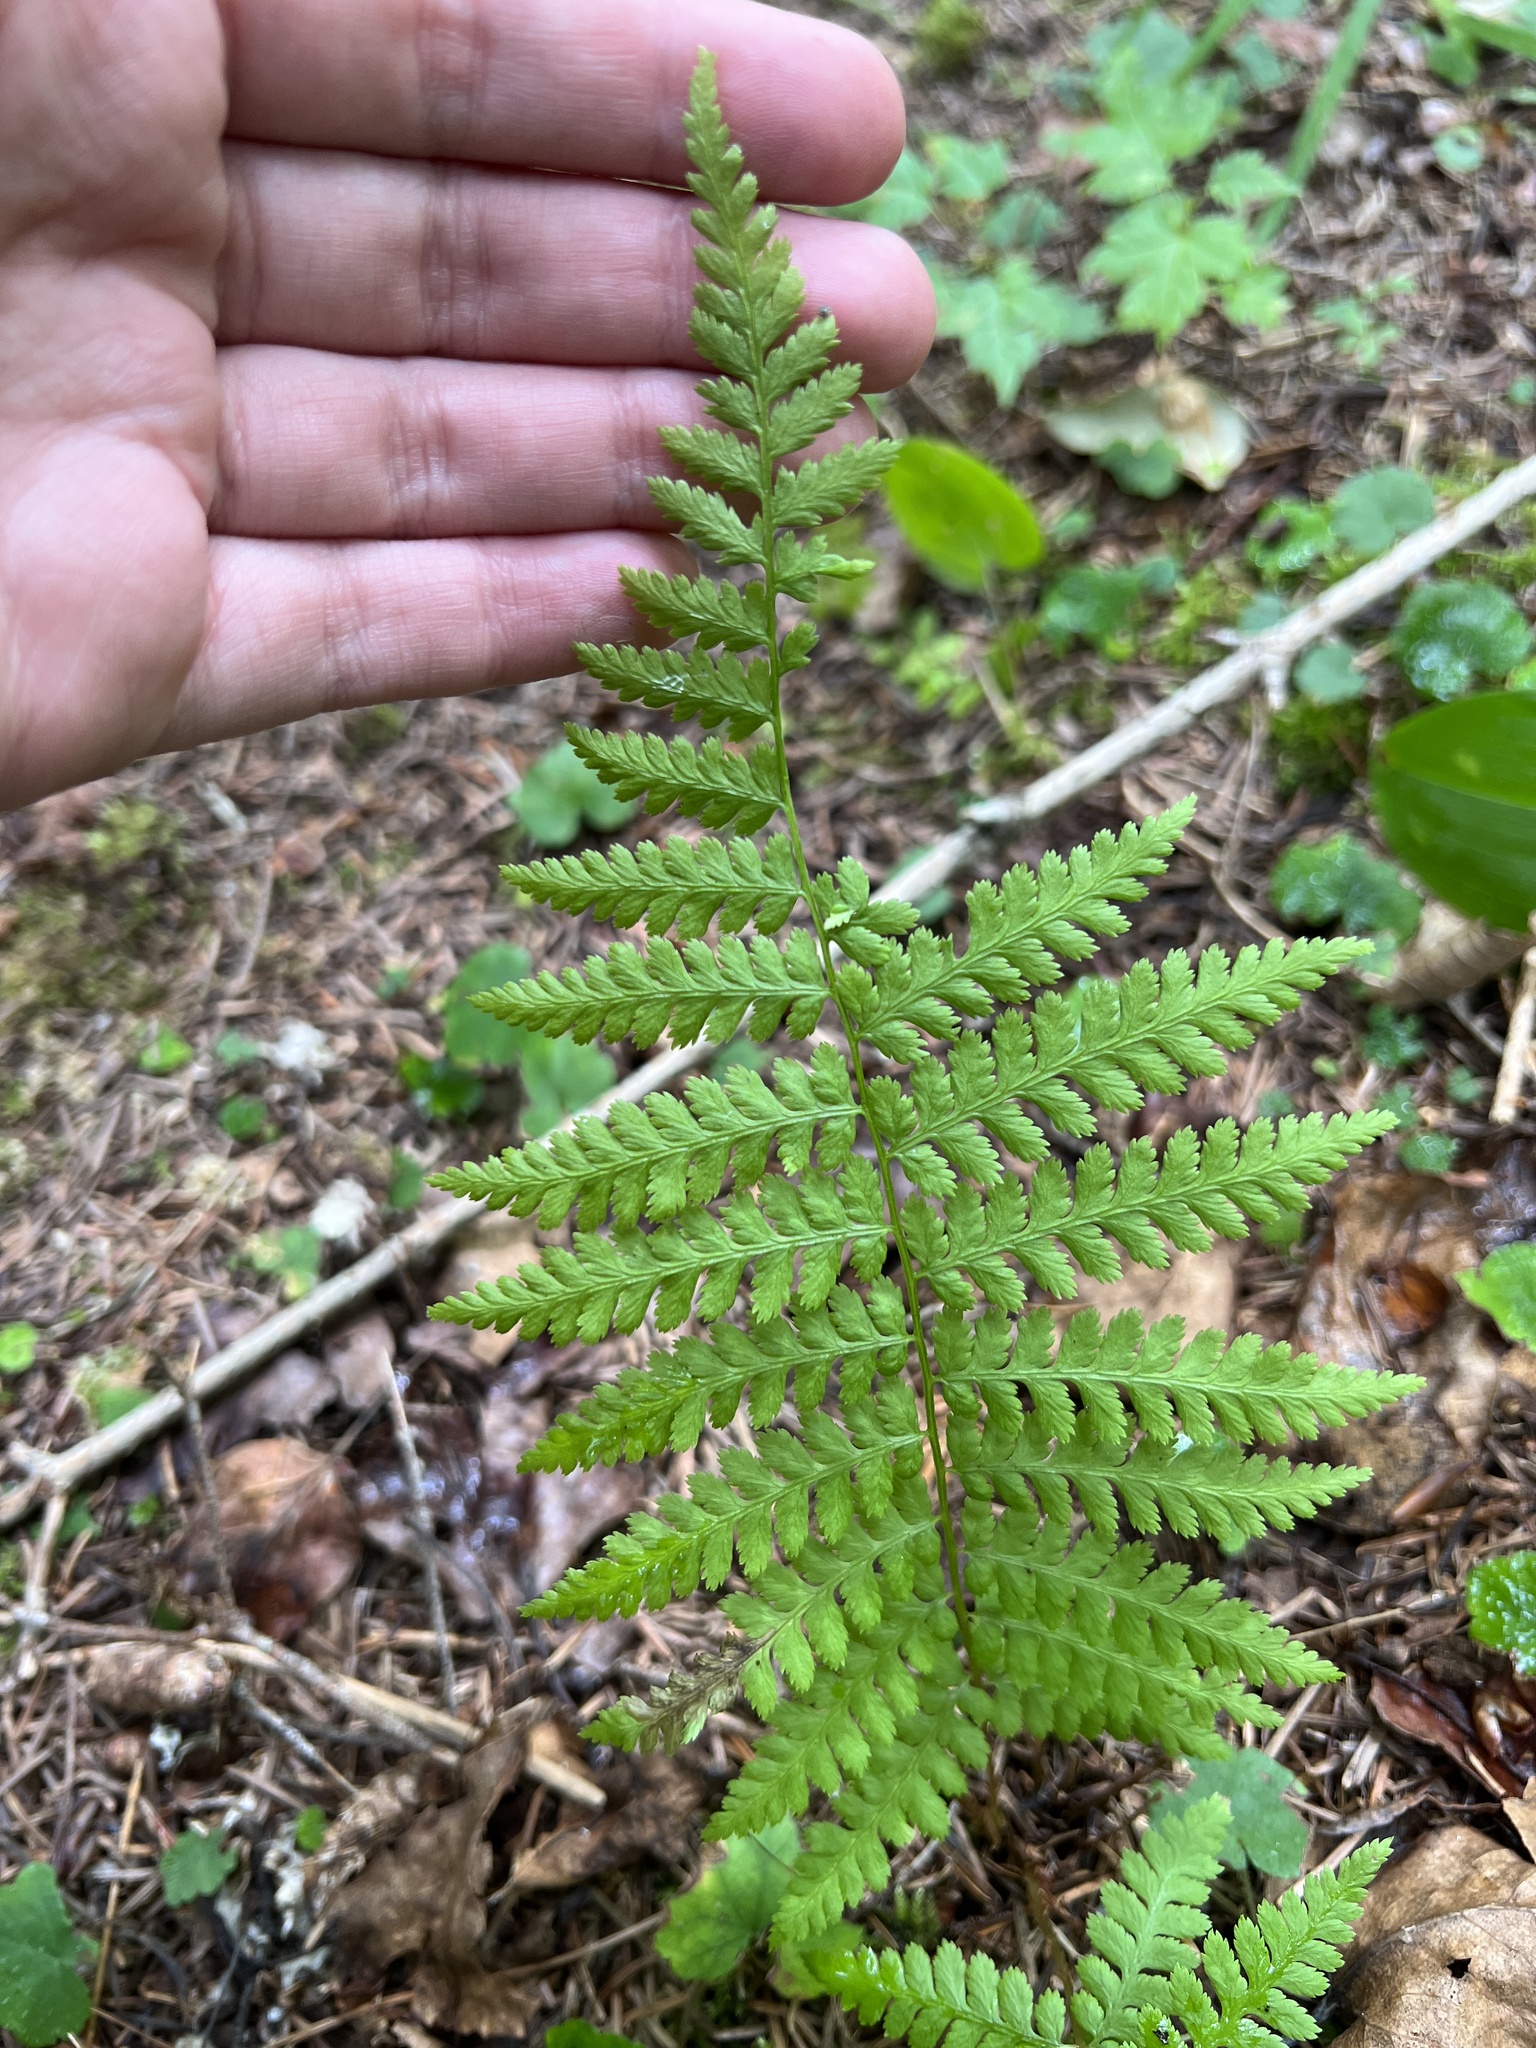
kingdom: Plantae
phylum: Tracheophyta
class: Polypodiopsida
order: Polypodiales
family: Athyriaceae
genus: Athyrium
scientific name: Athyrium angustum
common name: Northern lady fern
